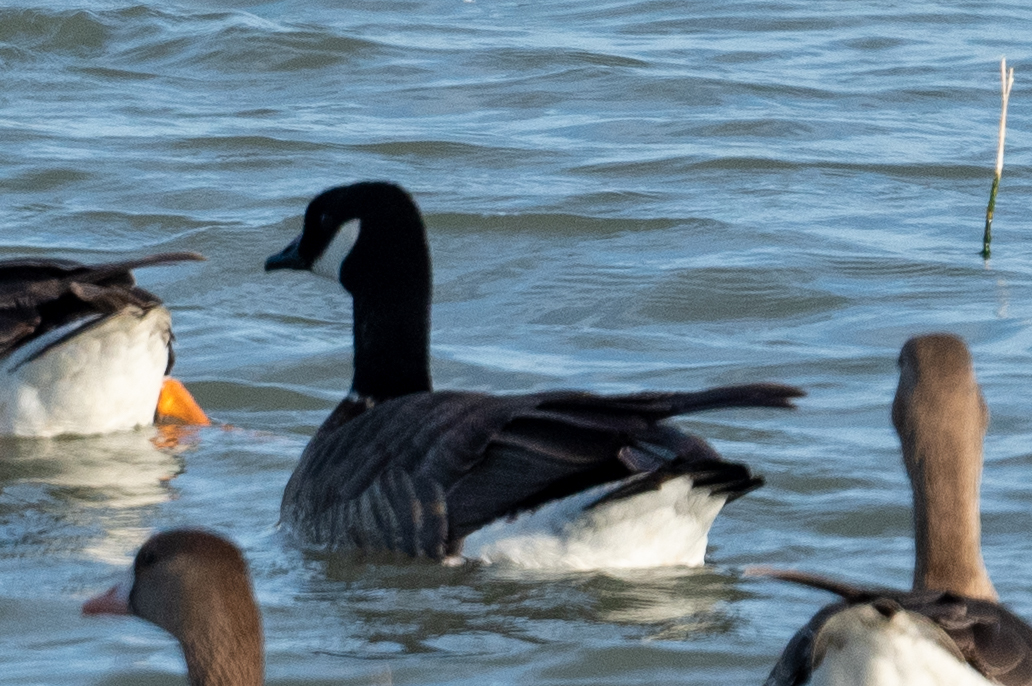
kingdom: Animalia
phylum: Chordata
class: Aves
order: Anseriformes
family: Anatidae
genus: Branta
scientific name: Branta hutchinsii
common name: Cackling goose
